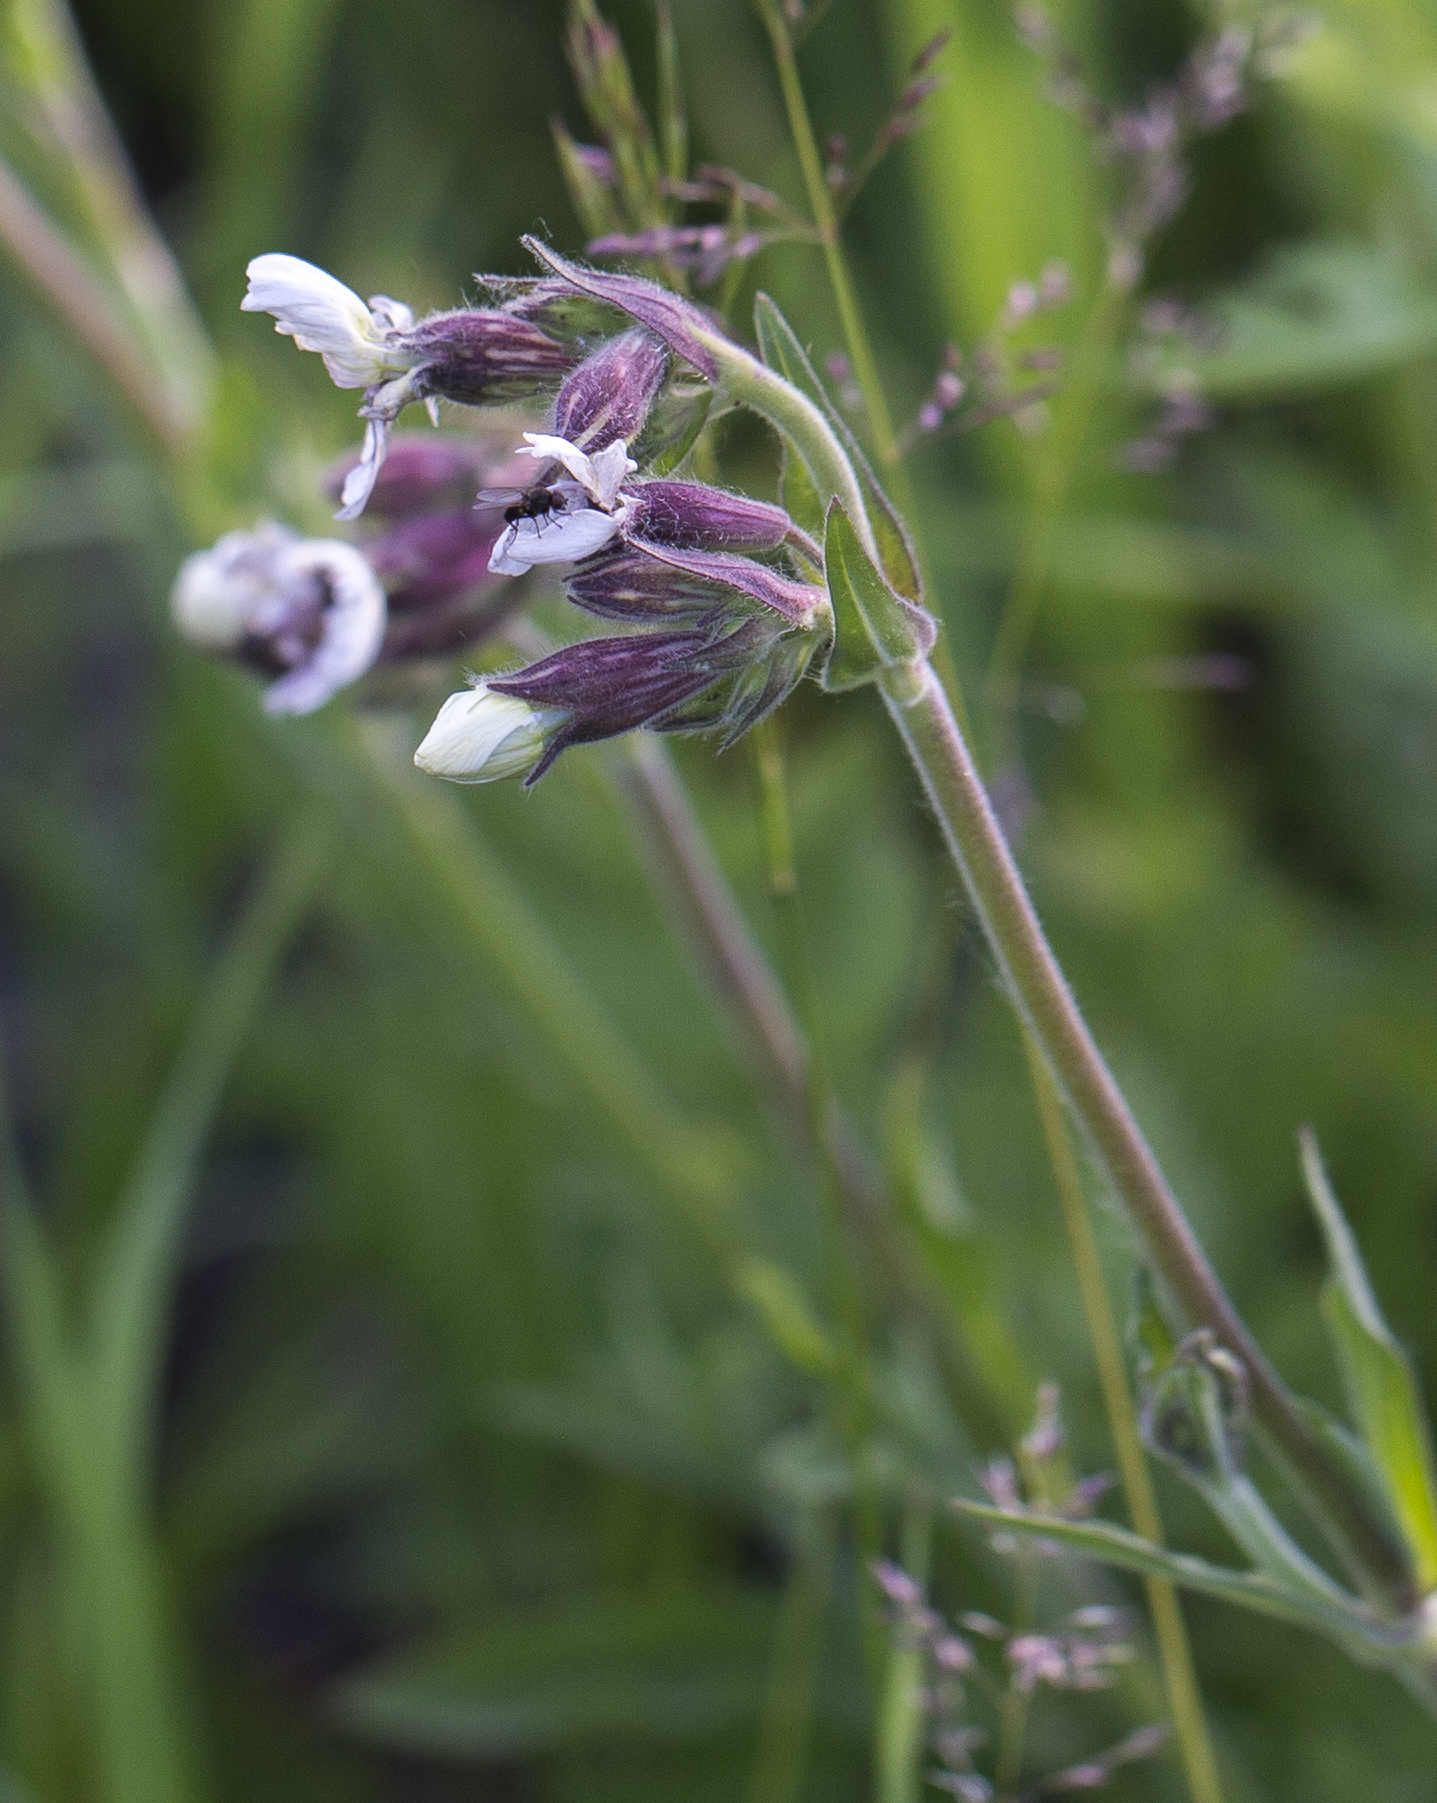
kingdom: Plantae
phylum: Tracheophyta
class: Magnoliopsida
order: Caryophyllales
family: Caryophyllaceae
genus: Silene
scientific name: Silene latifolia
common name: White campion
